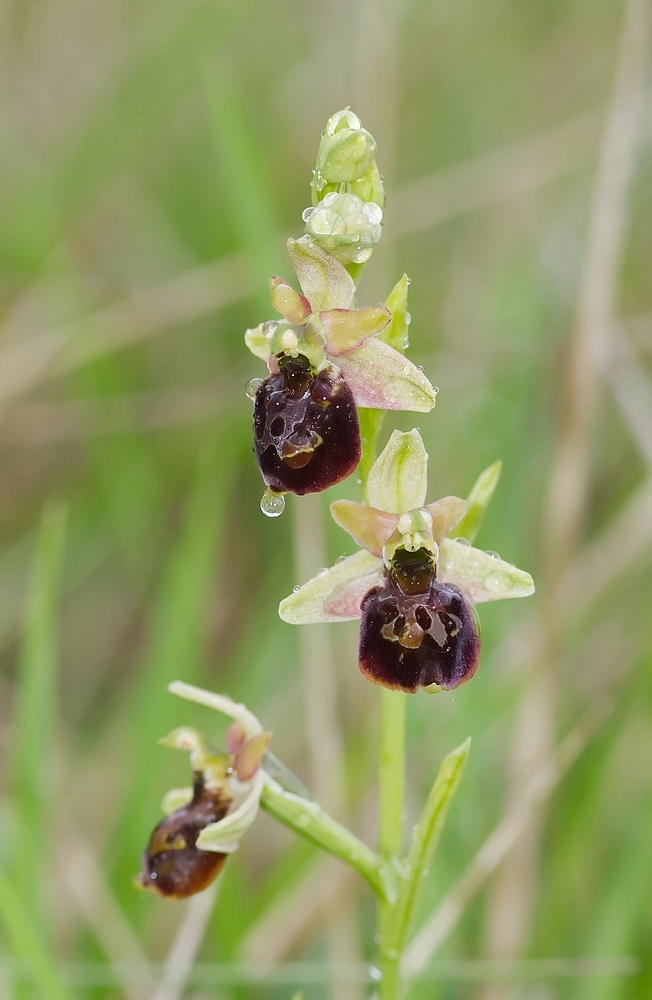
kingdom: Plantae
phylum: Tracheophyta
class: Liliopsida
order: Asparagales
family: Orchidaceae
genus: Ophrys
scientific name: Ophrys arachnitiformis
